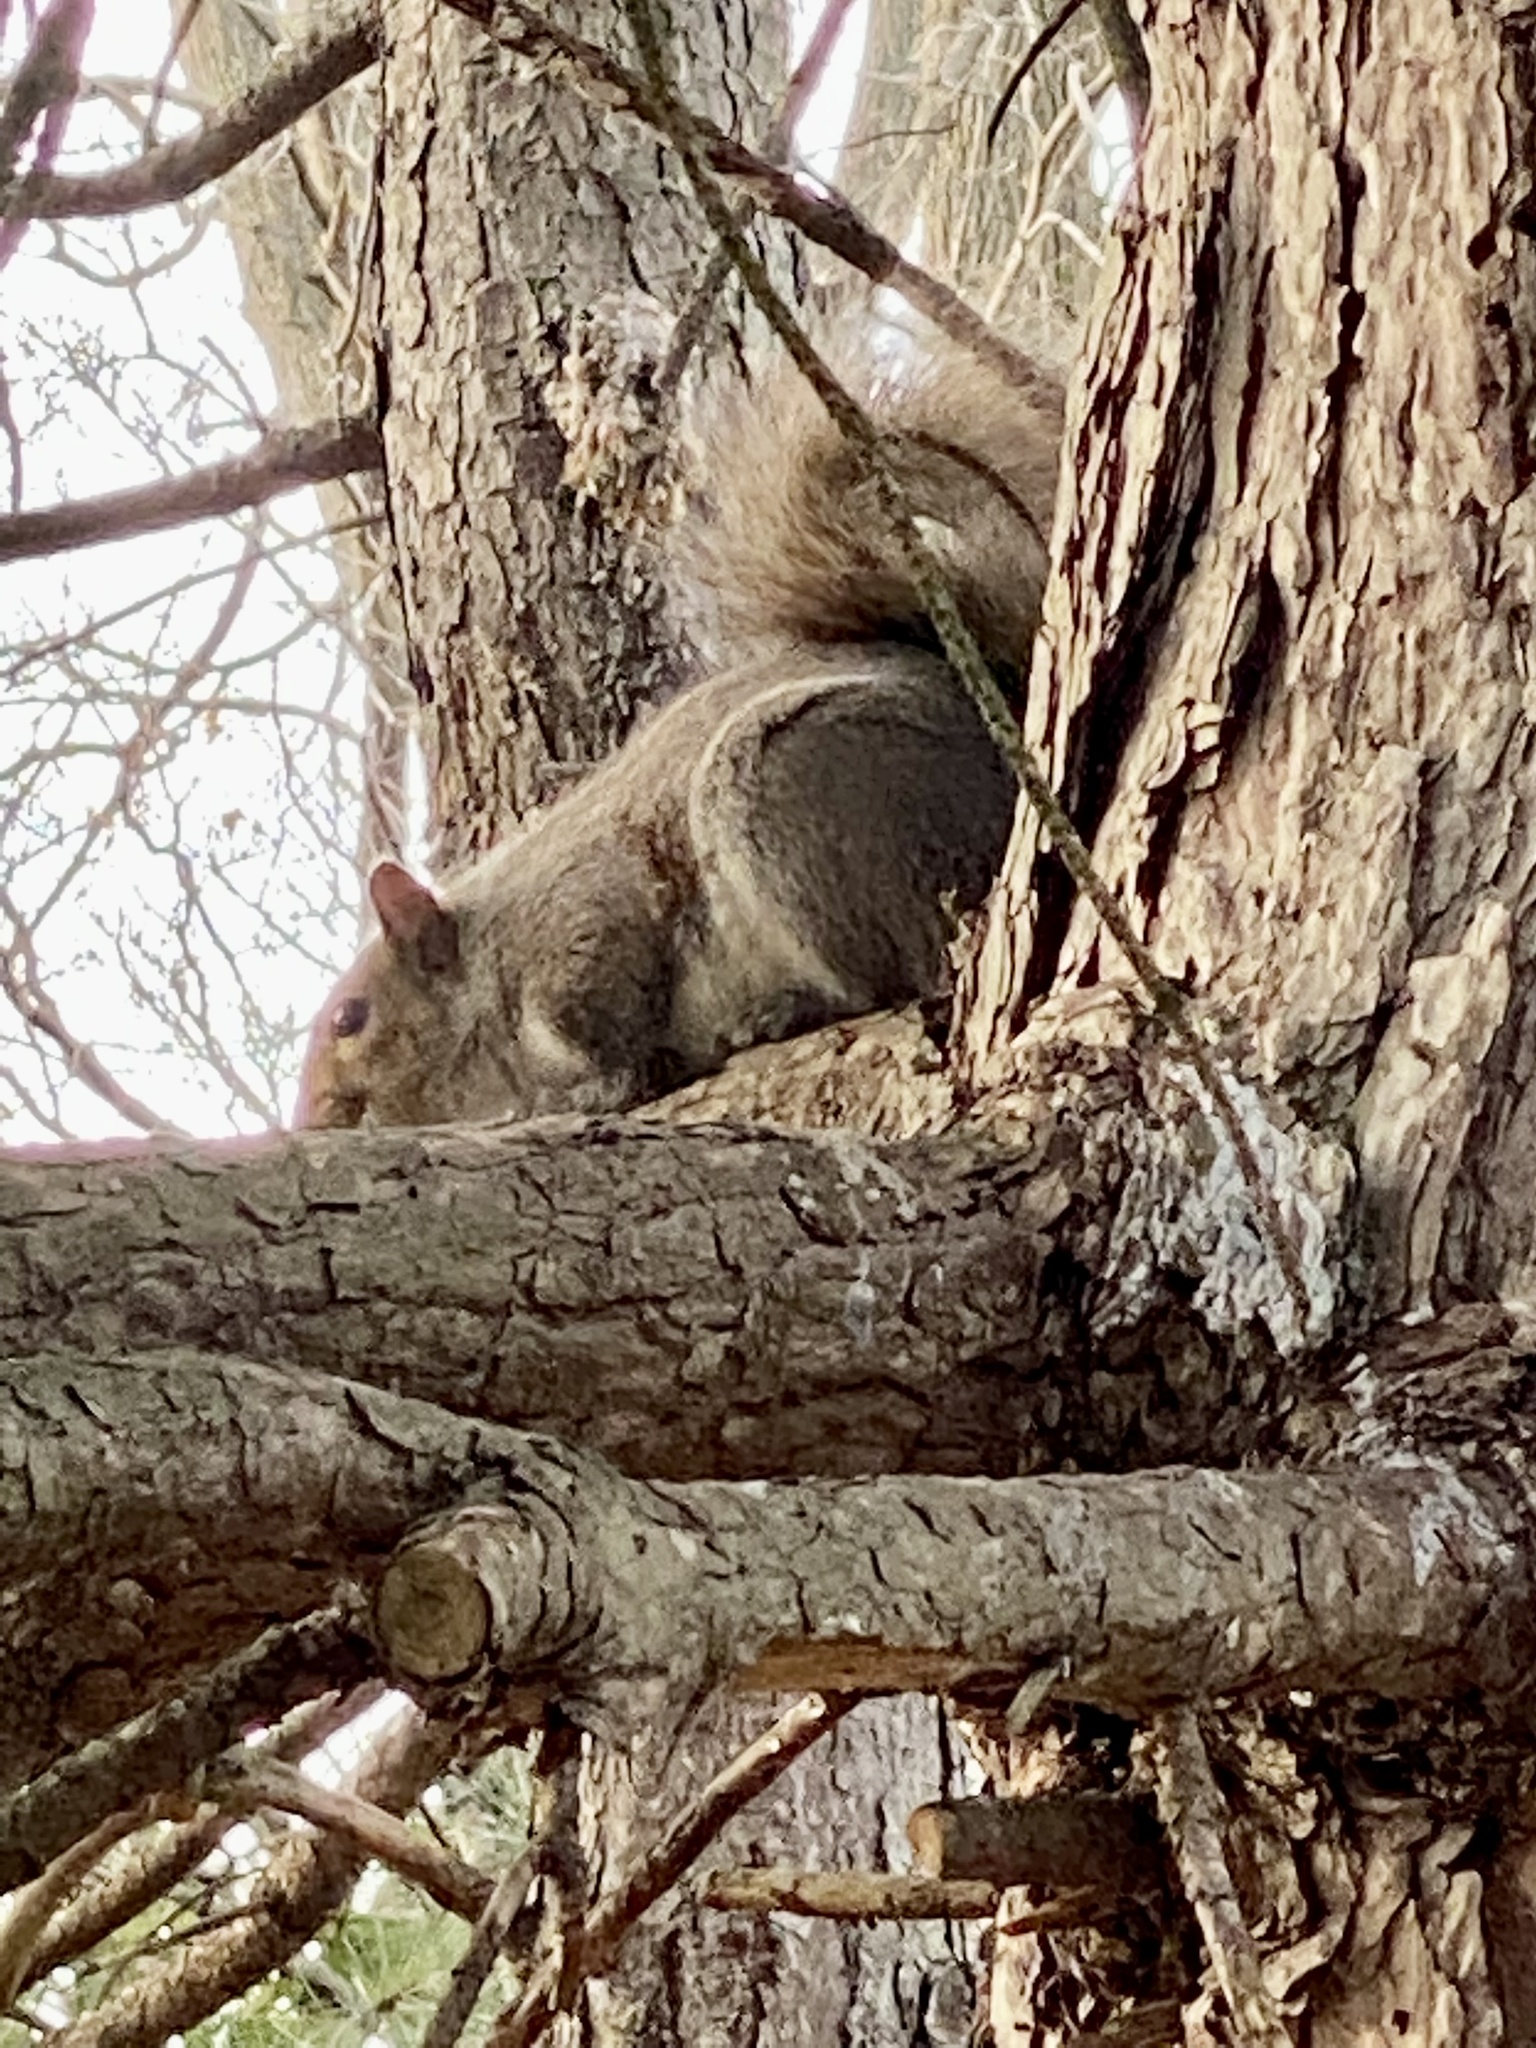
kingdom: Animalia
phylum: Chordata
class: Mammalia
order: Rodentia
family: Sciuridae
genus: Sciurus
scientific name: Sciurus carolinensis
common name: Eastern gray squirrel
